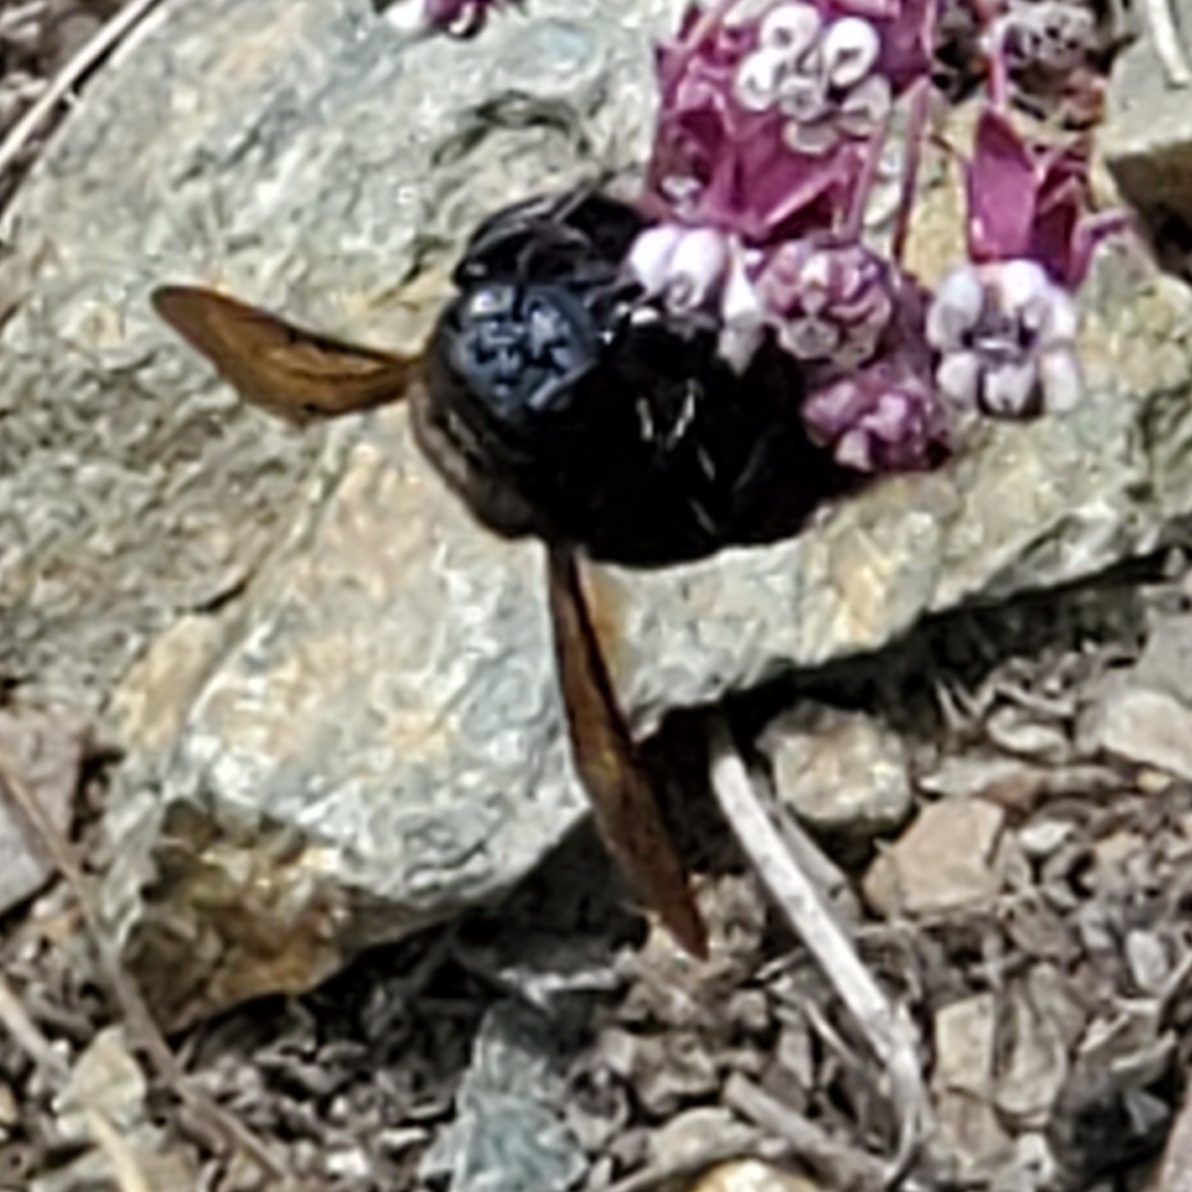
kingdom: Animalia
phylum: Arthropoda
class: Insecta
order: Hymenoptera
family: Apidae
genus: Xylocopa
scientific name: Xylocopa californica
